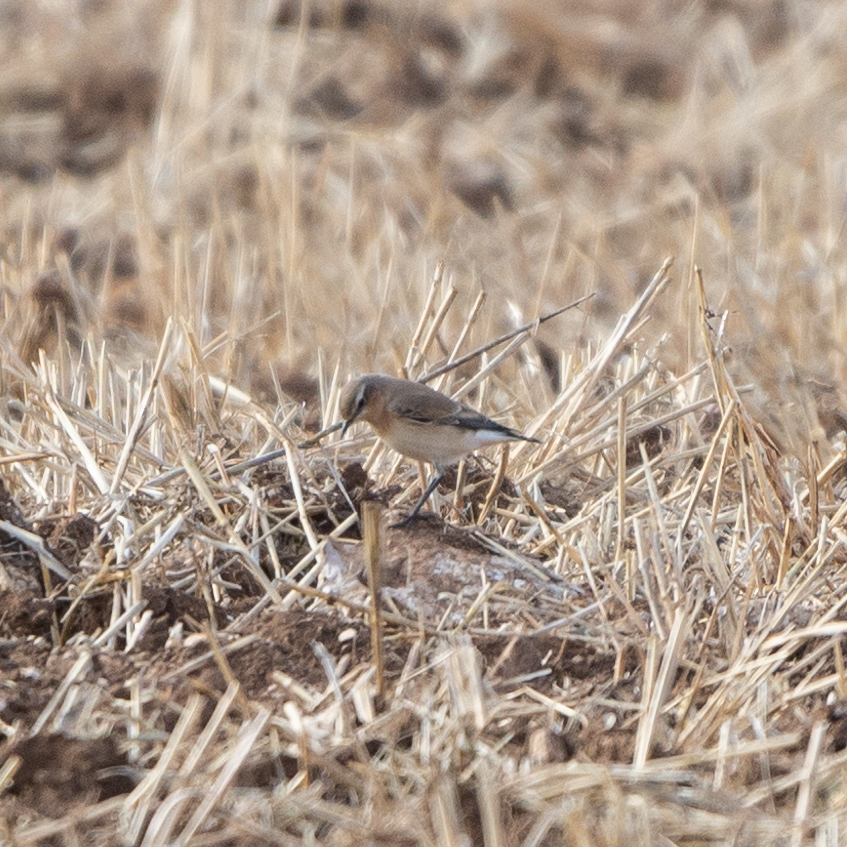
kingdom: Animalia
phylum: Chordata
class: Aves
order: Passeriformes
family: Muscicapidae
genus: Oenanthe
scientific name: Oenanthe oenanthe
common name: Northern wheatear
